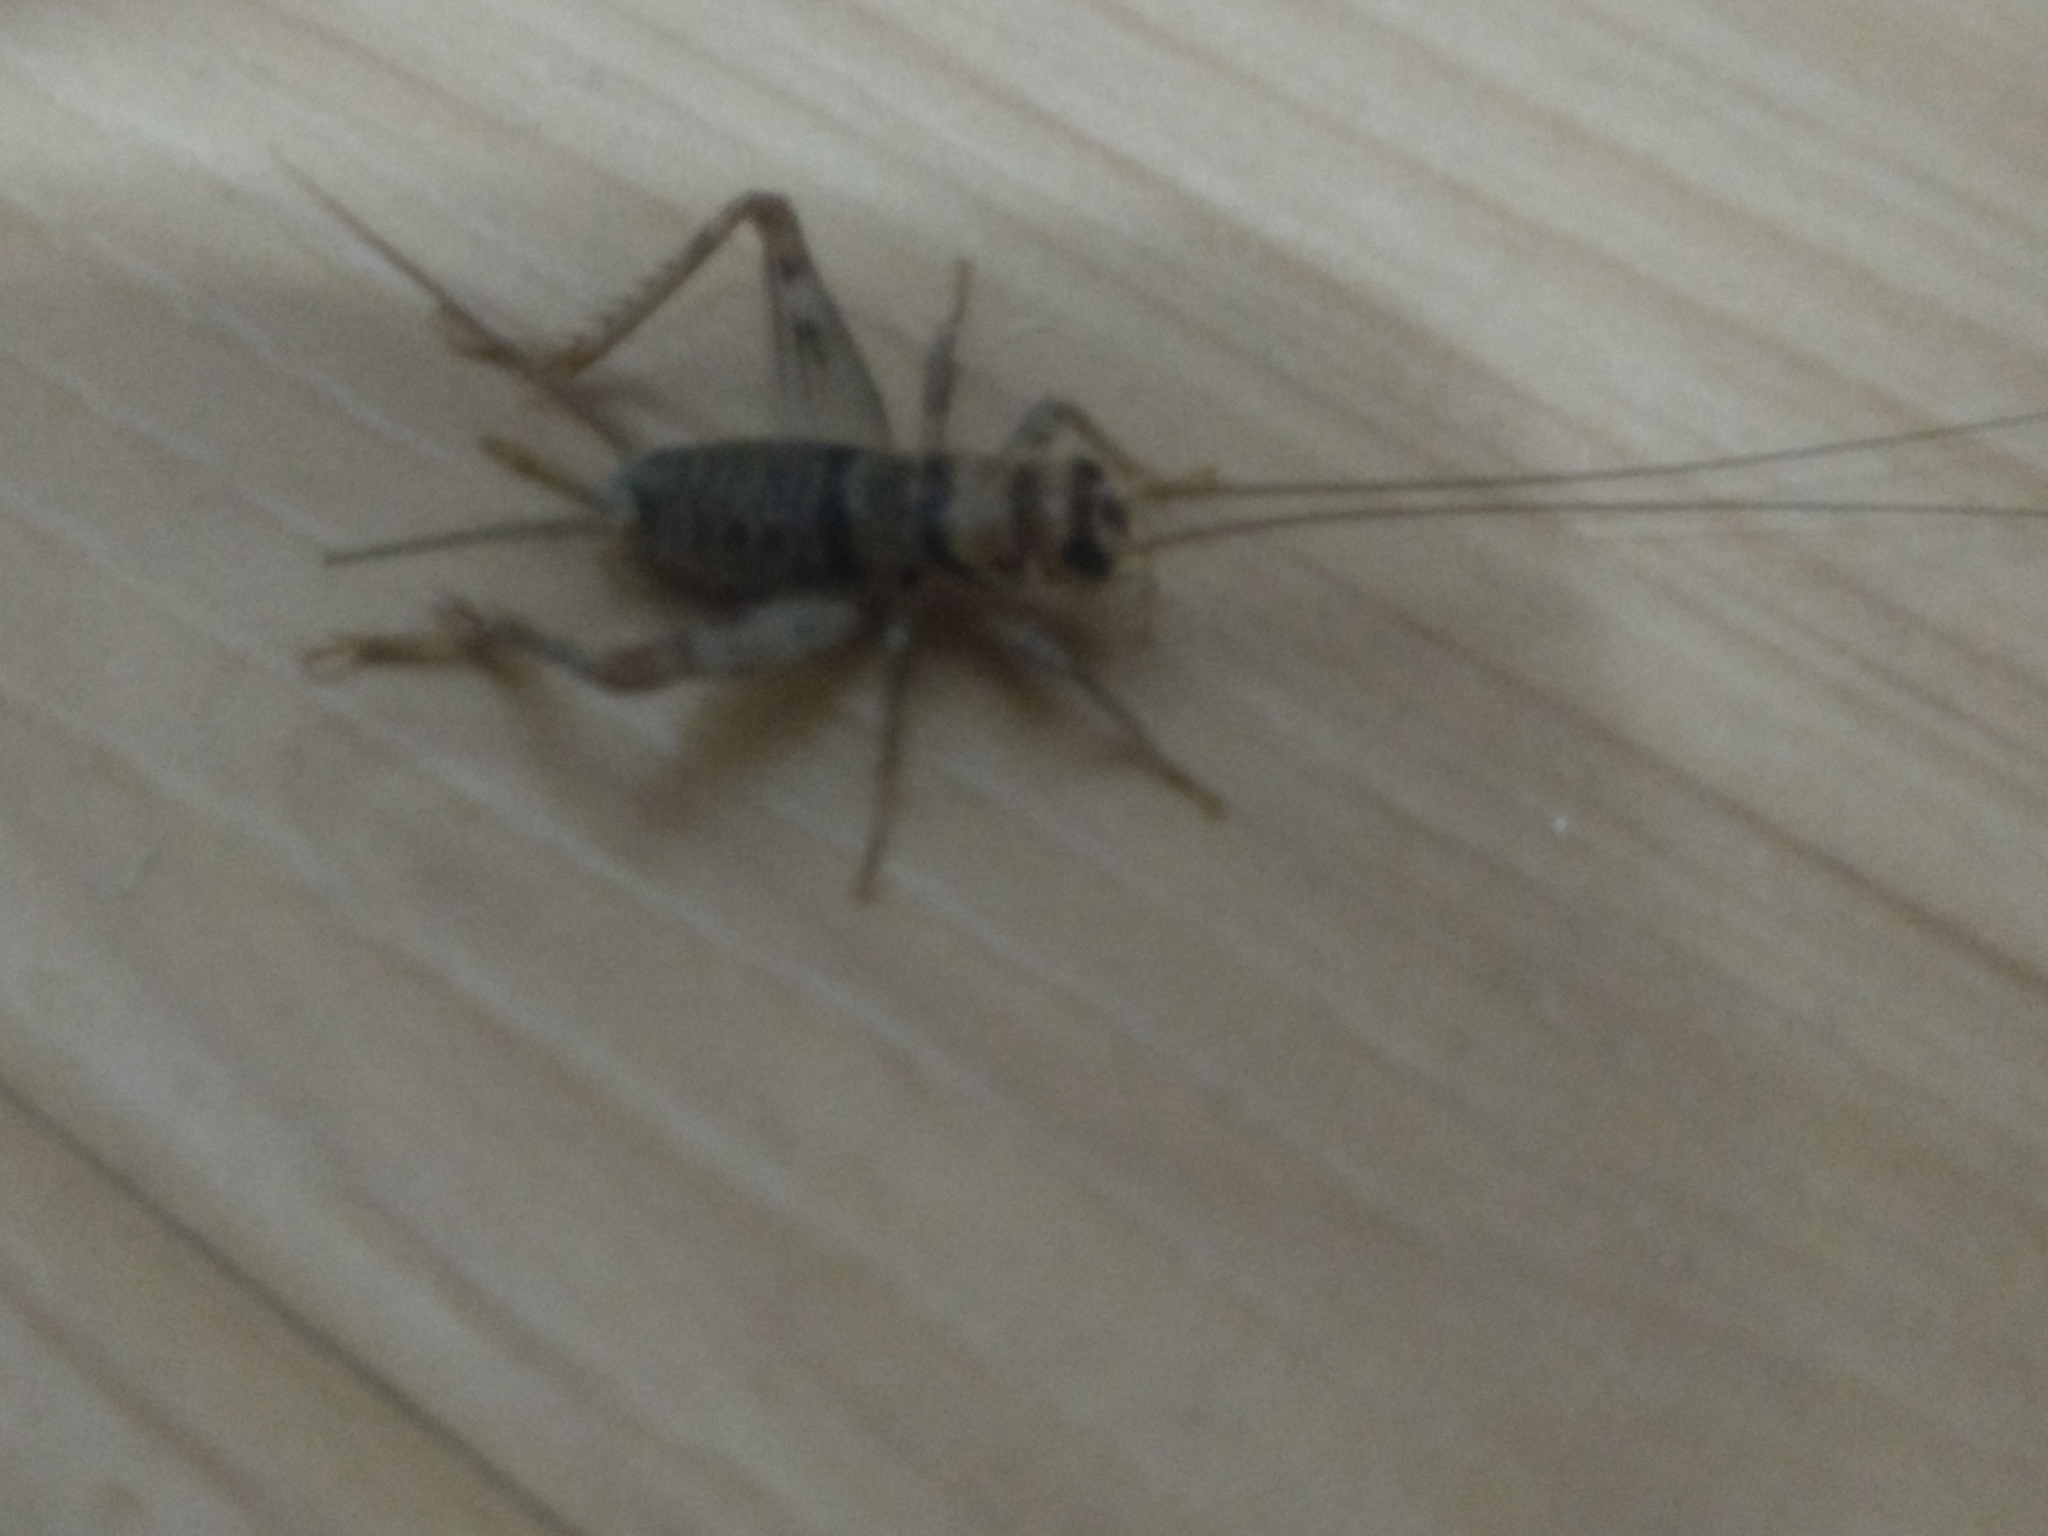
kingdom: Animalia
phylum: Arthropoda
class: Insecta
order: Orthoptera
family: Gryllidae
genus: Gryllodes
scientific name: Gryllodes sigillatus
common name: Tropical house cricket
